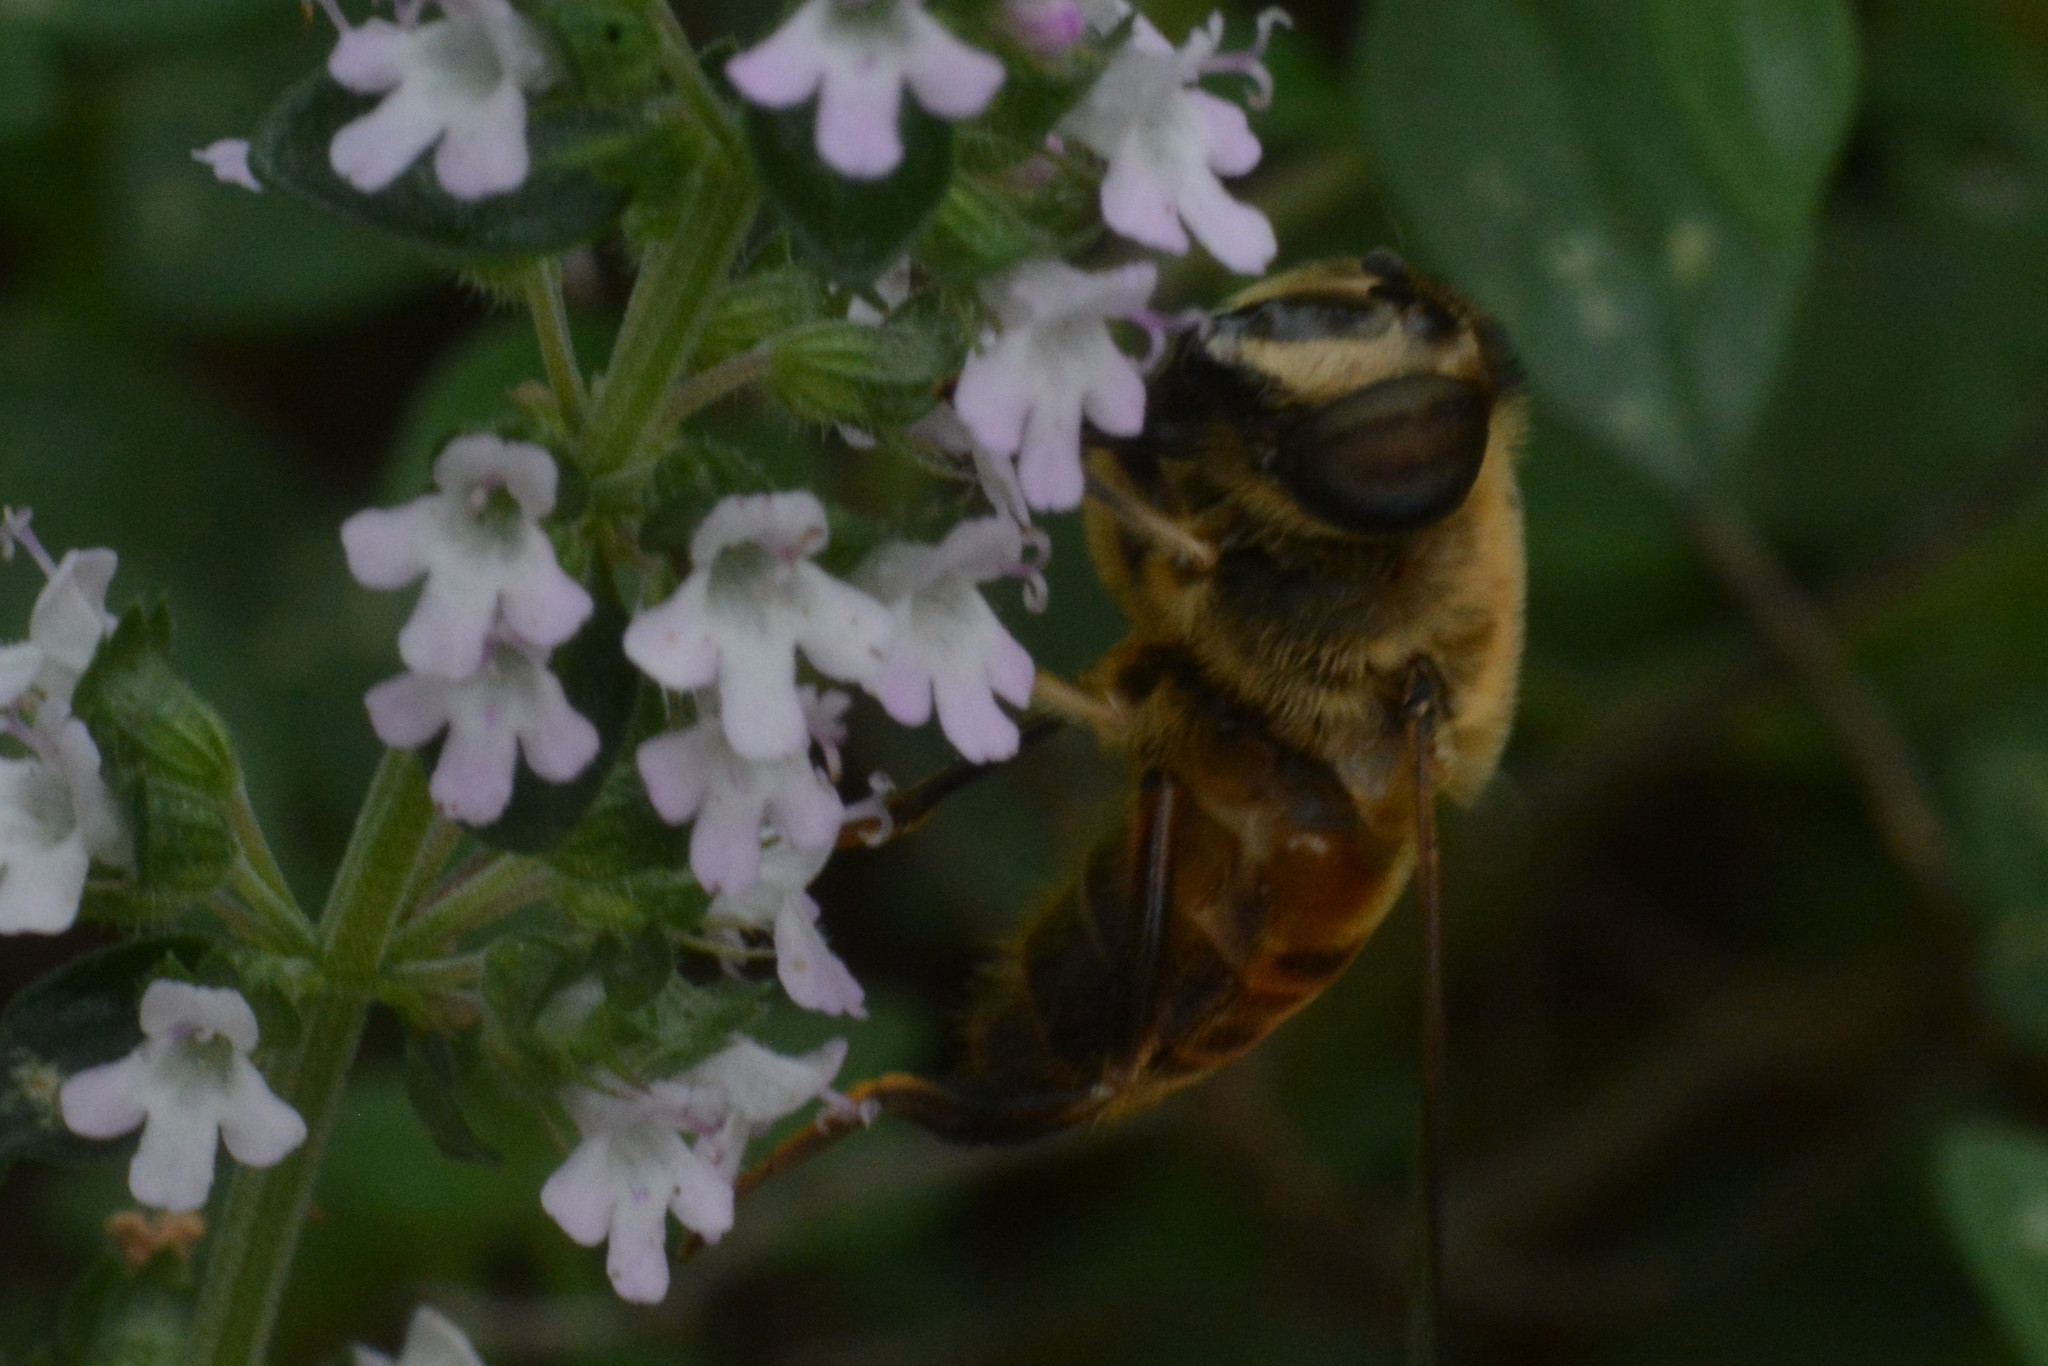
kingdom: Animalia
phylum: Arthropoda
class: Insecta
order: Diptera
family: Syrphidae
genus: Eristalis
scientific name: Eristalis tenax
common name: Drone fly
